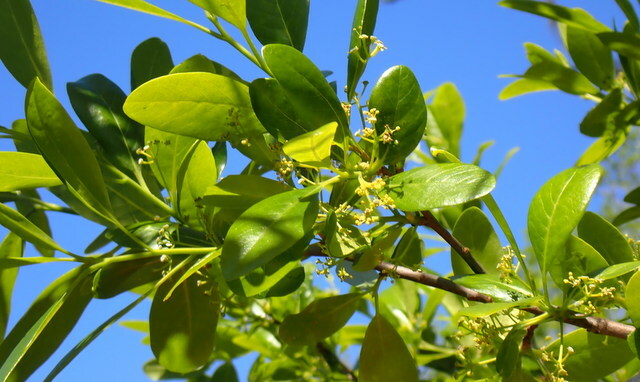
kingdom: Plantae
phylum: Tracheophyta
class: Magnoliopsida
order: Cornales
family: Nyssaceae
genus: Nyssa
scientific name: Nyssa biflora
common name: Swamp blackgum
